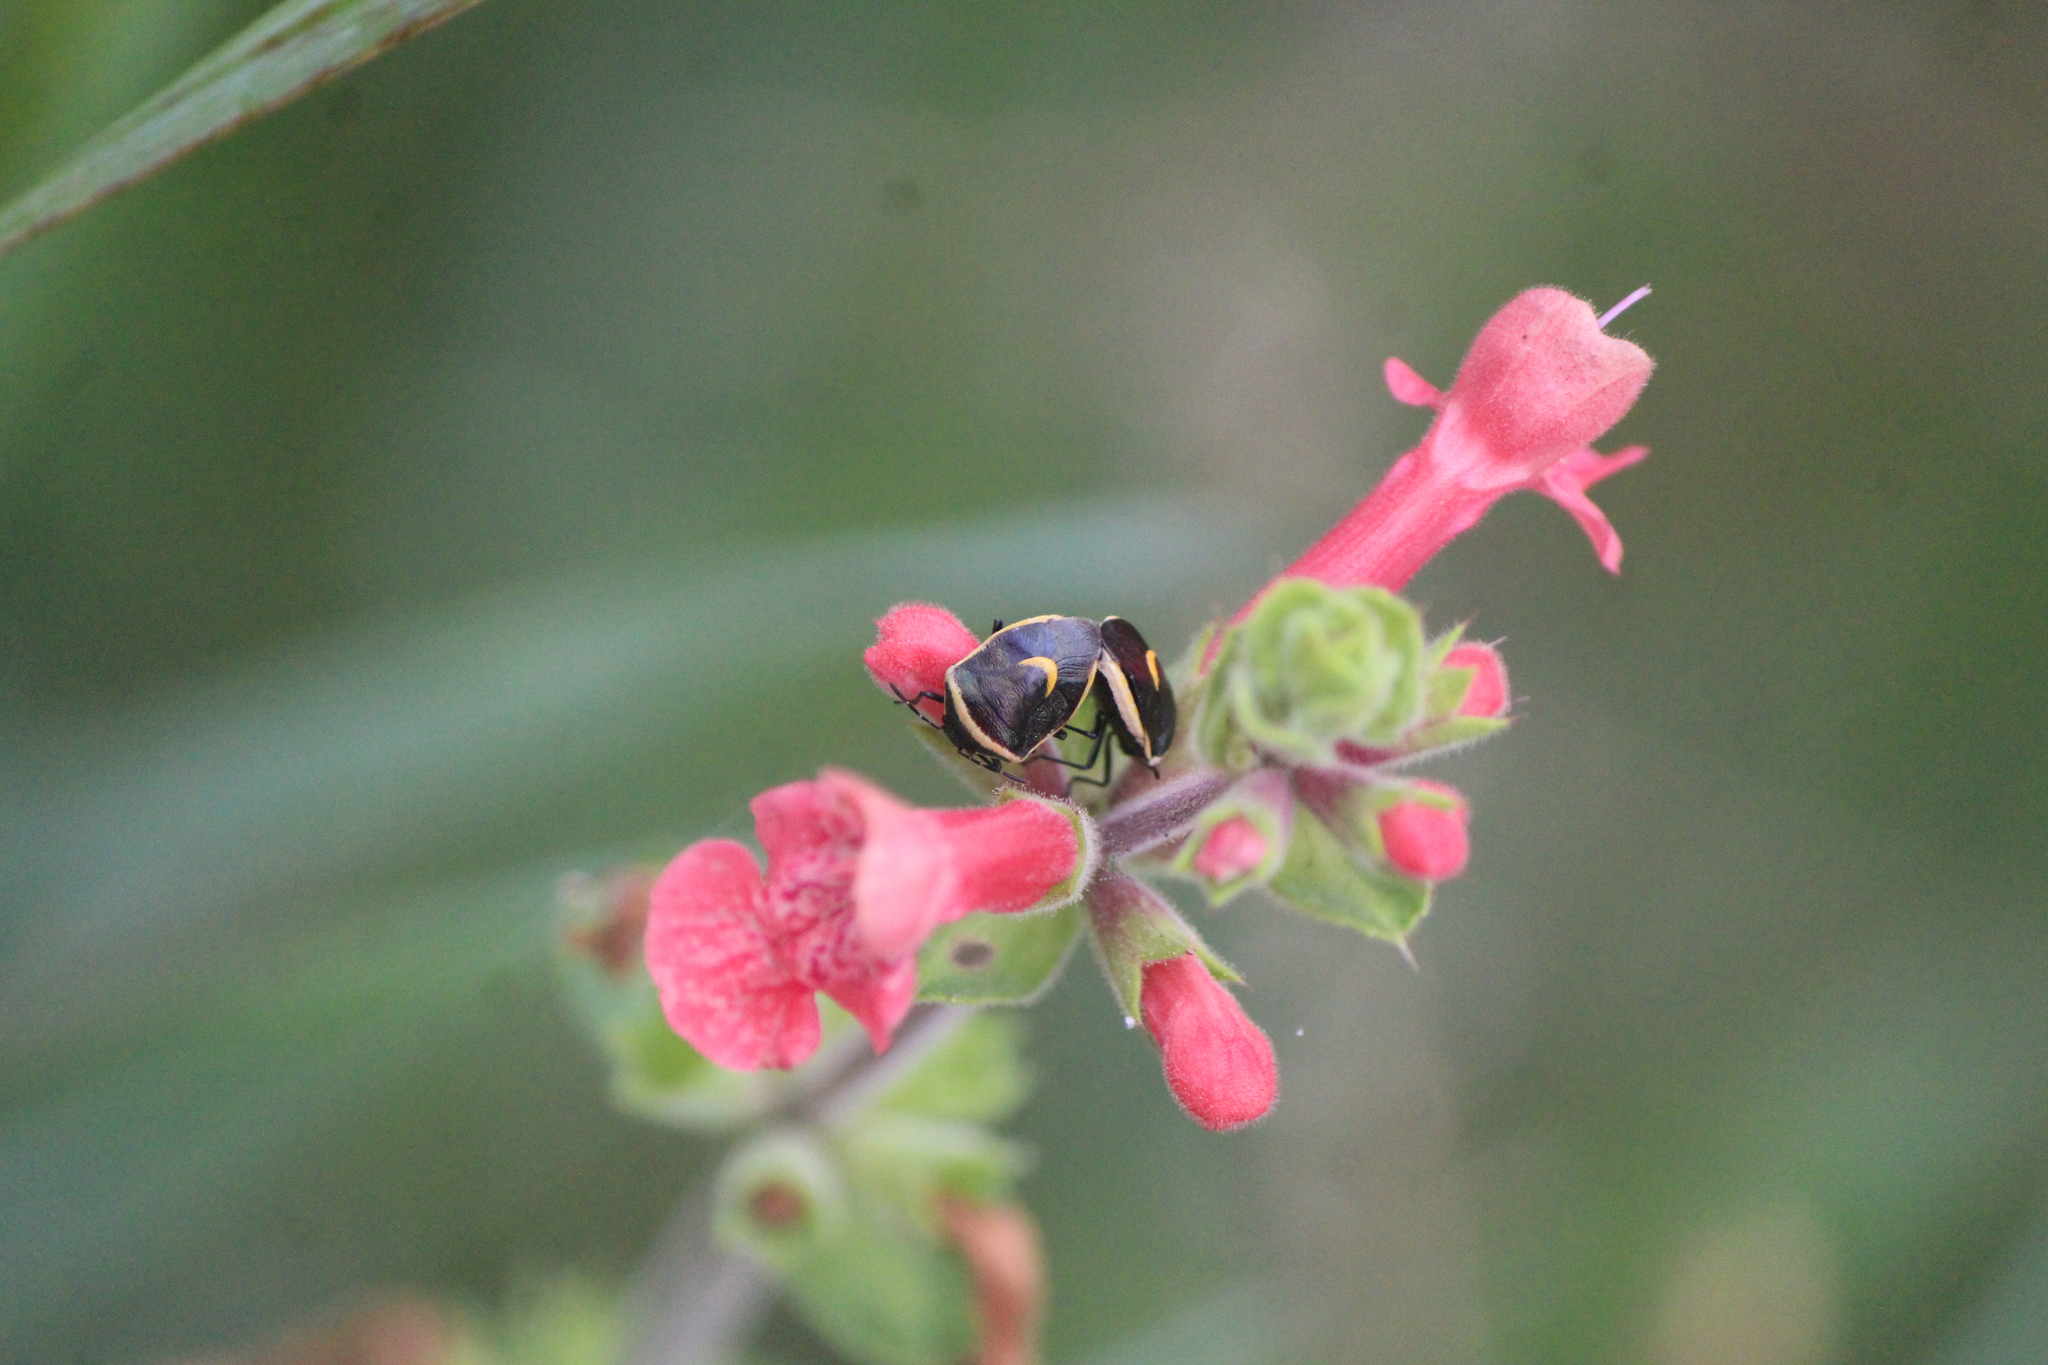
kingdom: Animalia
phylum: Arthropoda
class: Insecta
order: Hemiptera
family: Pentatomidae
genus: Cosmopepla
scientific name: Cosmopepla decorata
